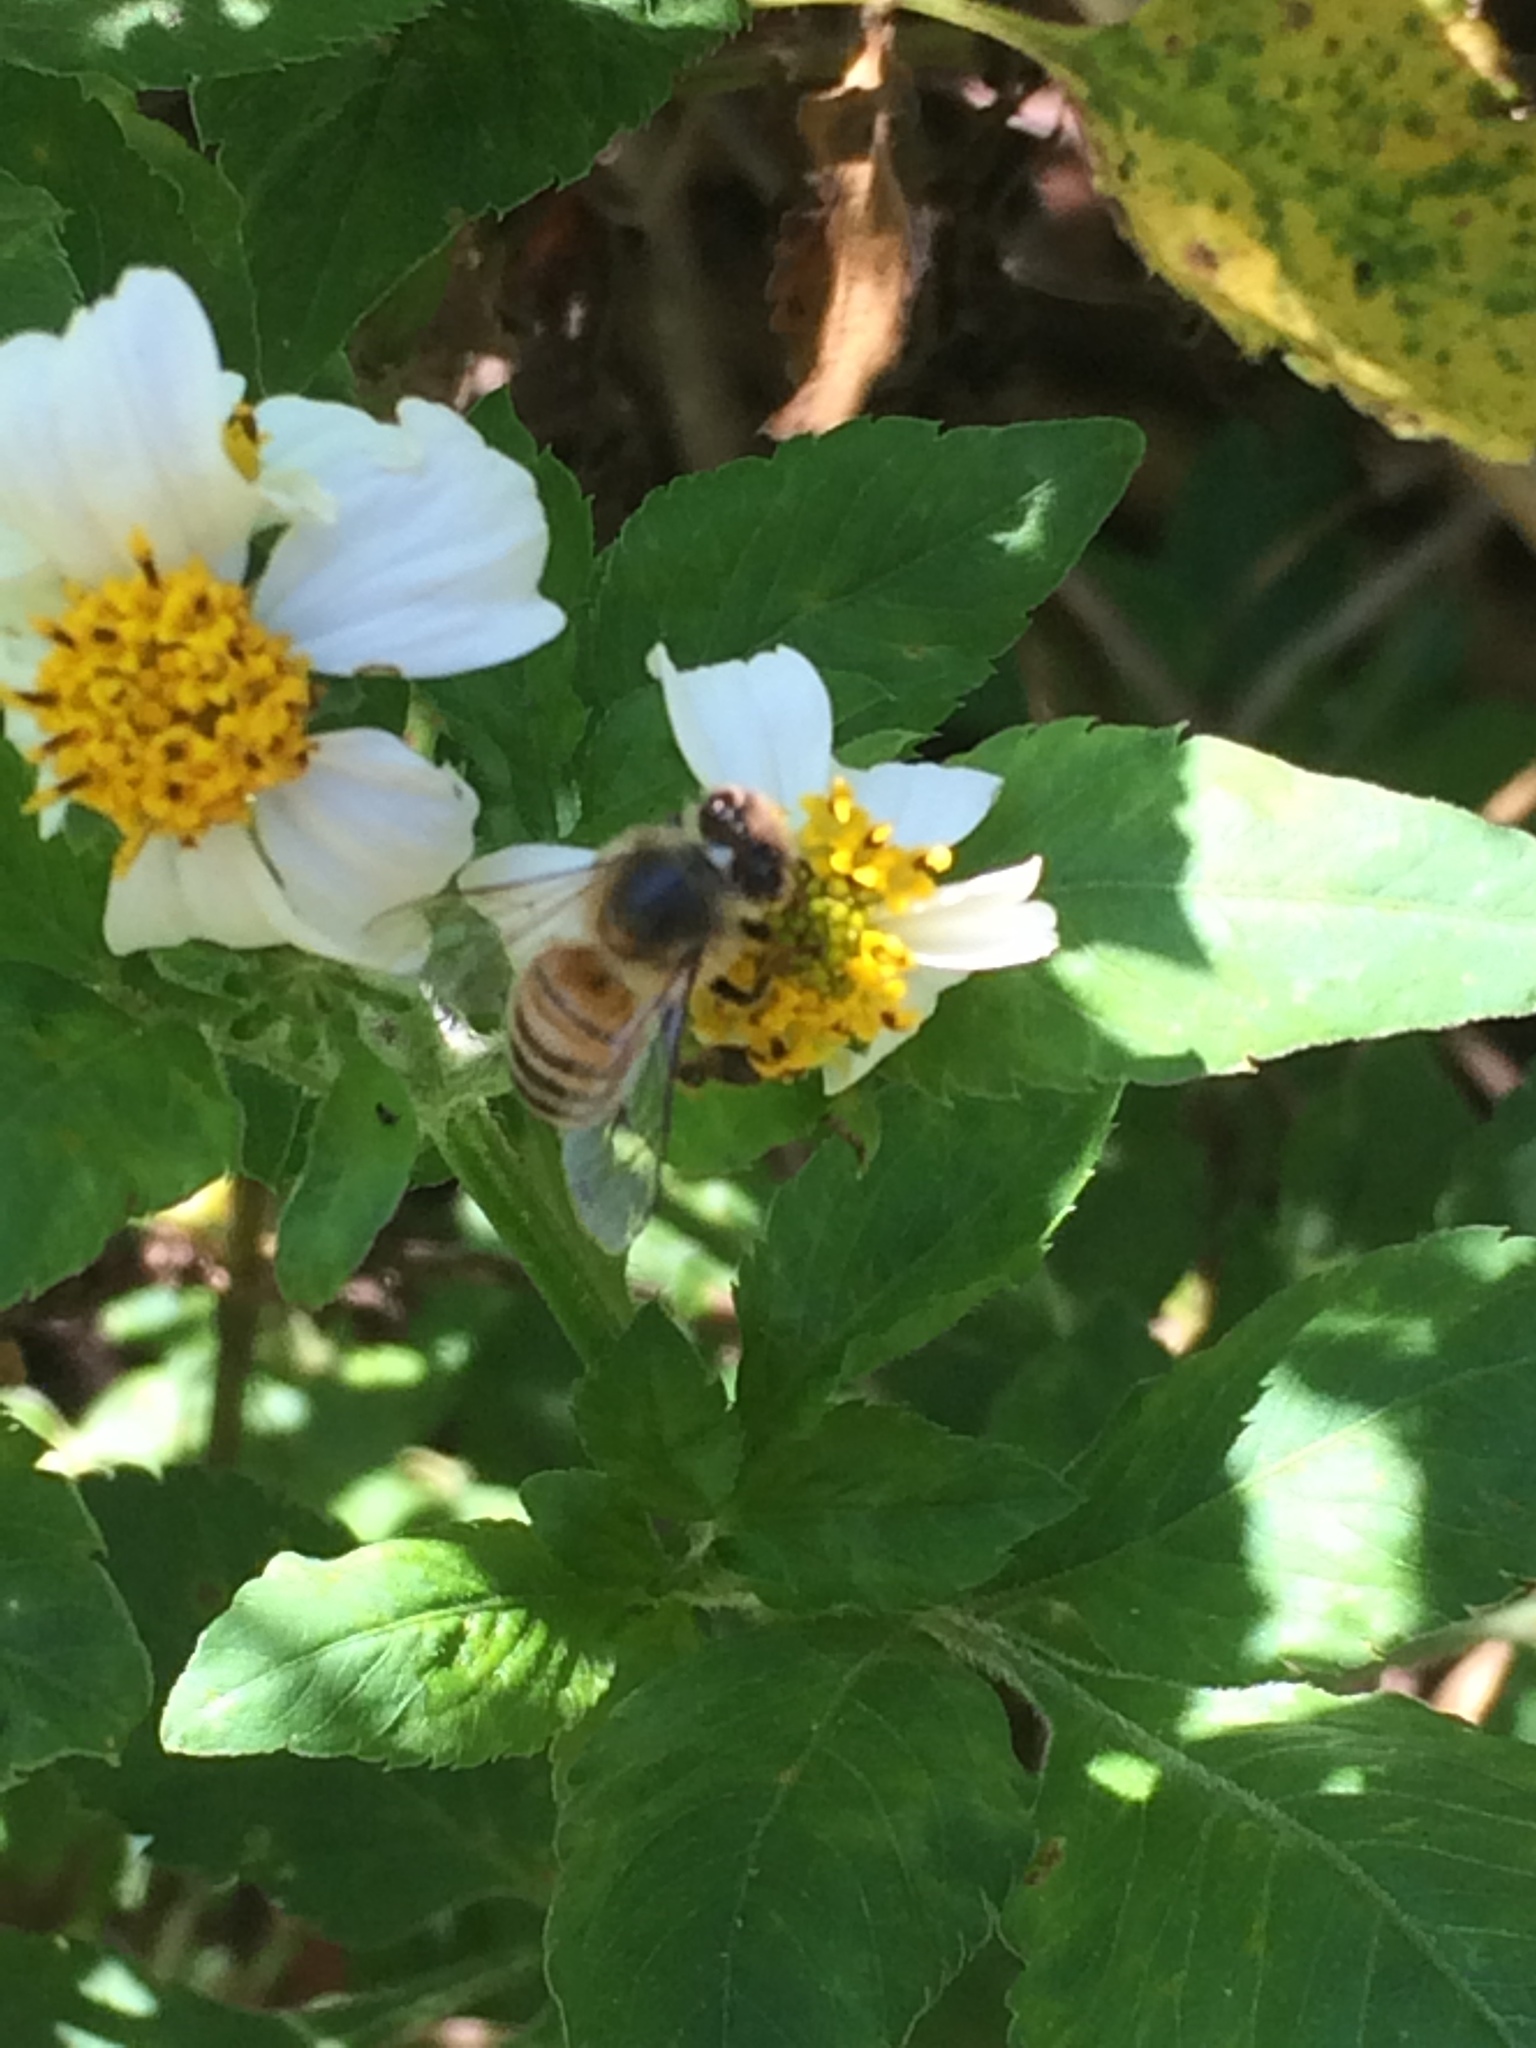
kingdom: Animalia
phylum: Arthropoda
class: Insecta
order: Hymenoptera
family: Apidae
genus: Apis
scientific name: Apis mellifera
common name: Honey bee
